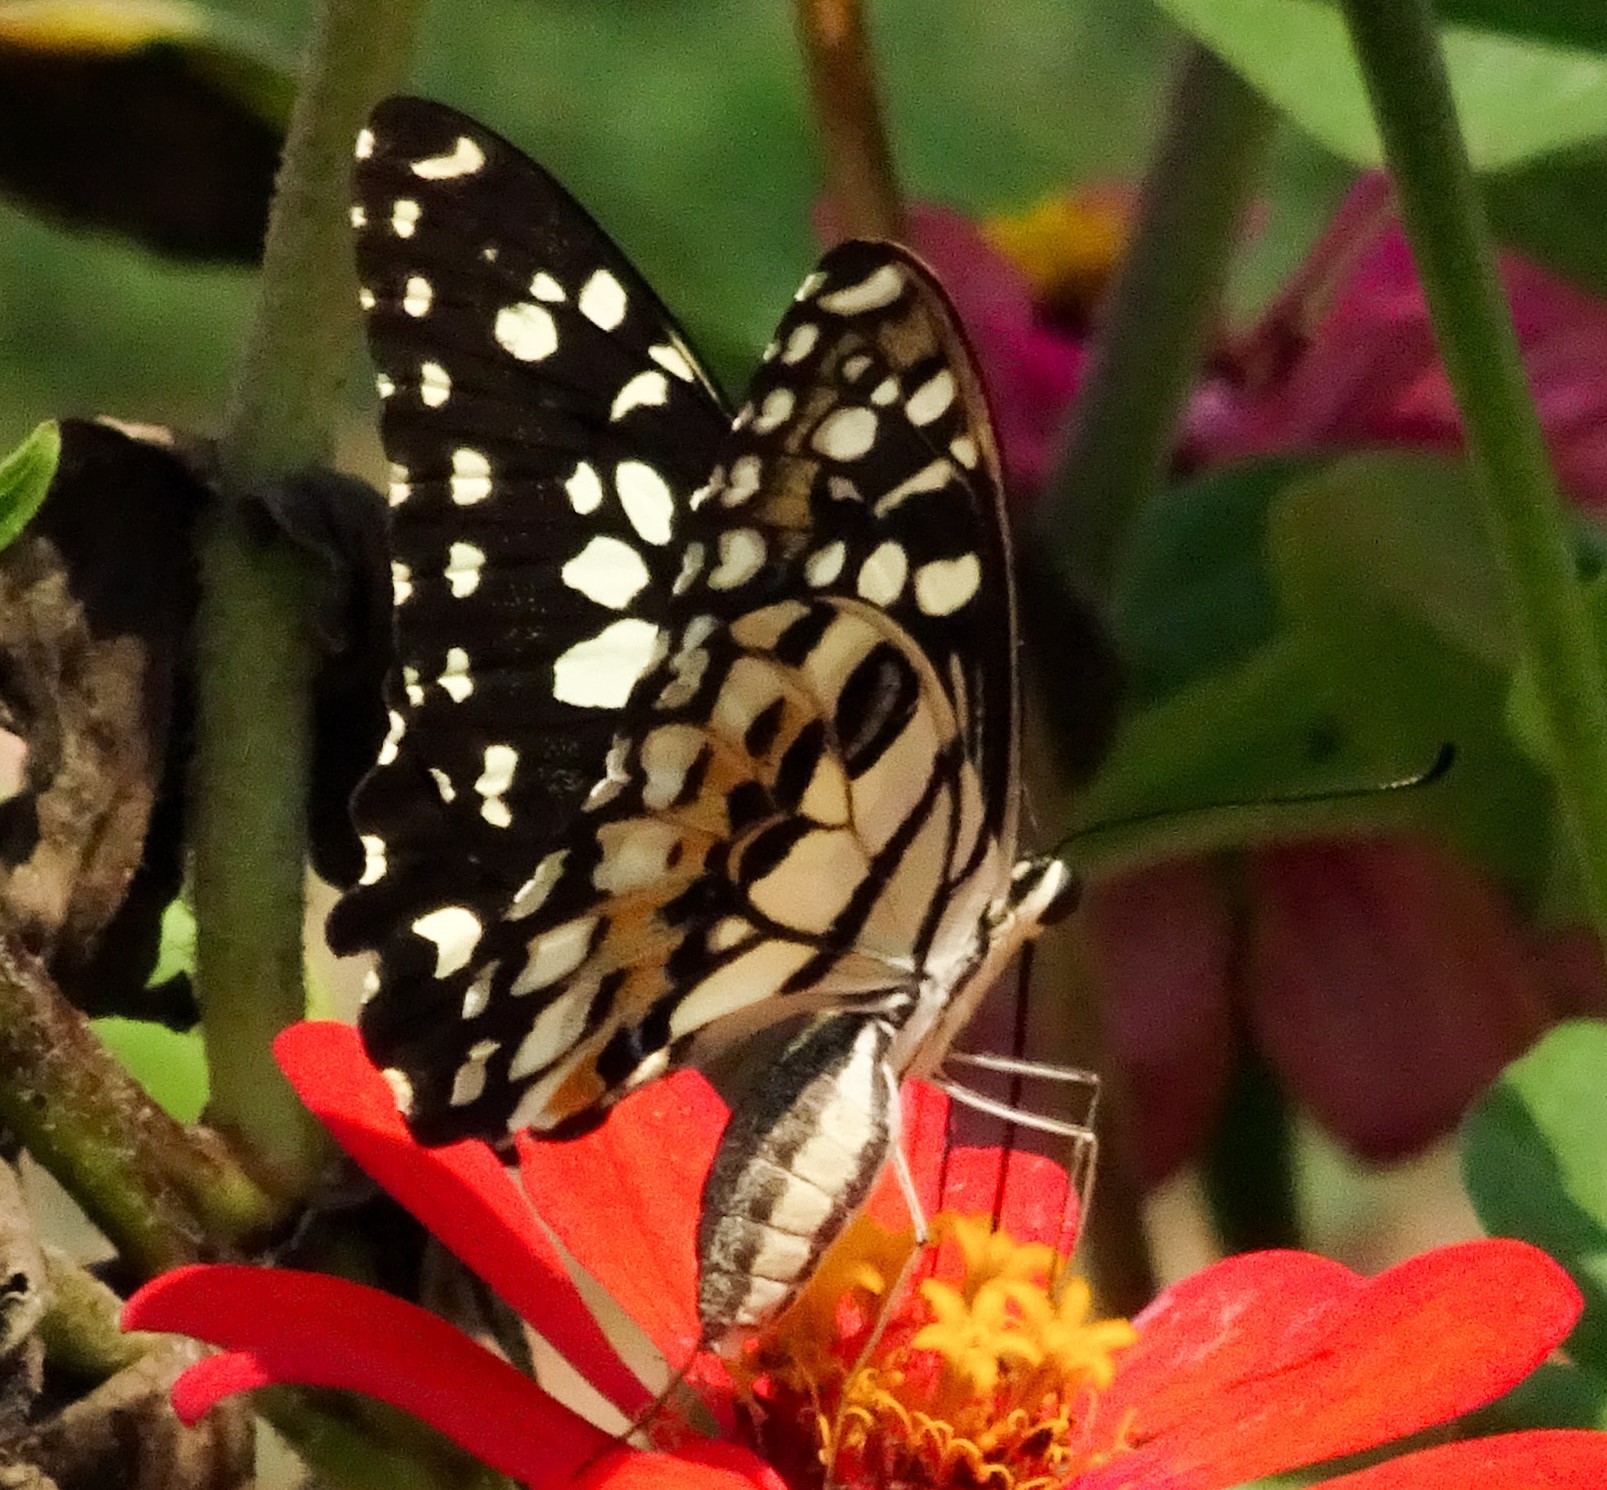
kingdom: Animalia
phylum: Arthropoda
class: Insecta
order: Lepidoptera
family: Papilionidae
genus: Papilio
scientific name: Papilio demoleus
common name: Lime butterfly
